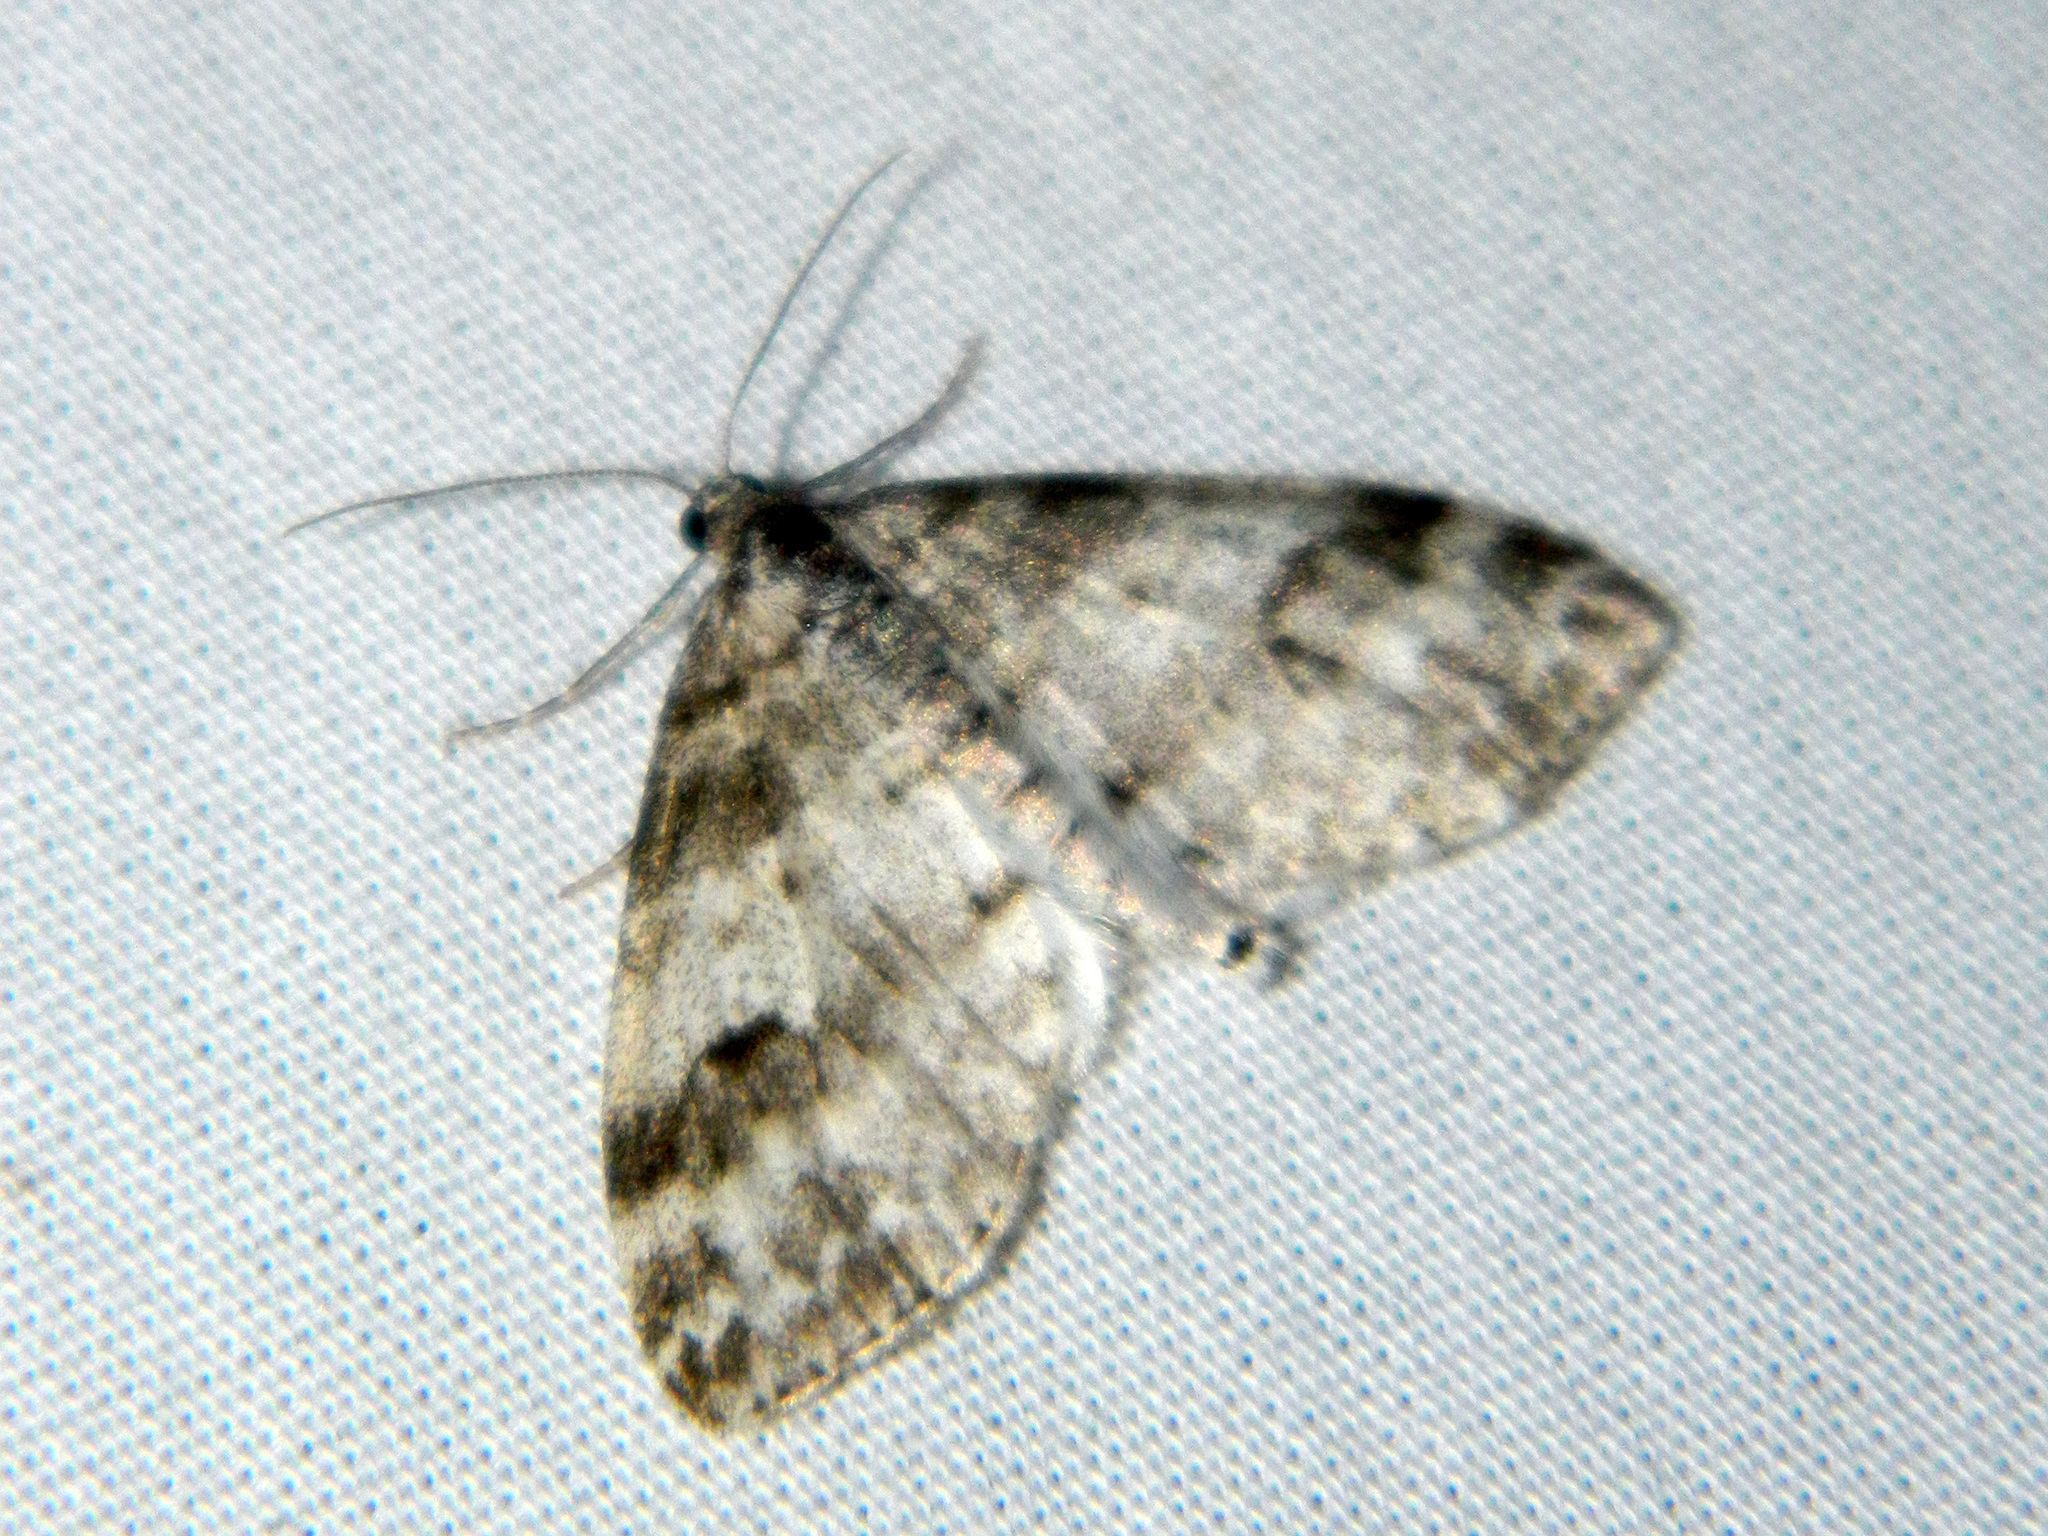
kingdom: Animalia
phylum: Arthropoda
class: Insecta
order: Lepidoptera
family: Geometridae
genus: Lobophora
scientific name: Lobophora nivigerata
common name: Powdered bigwing
